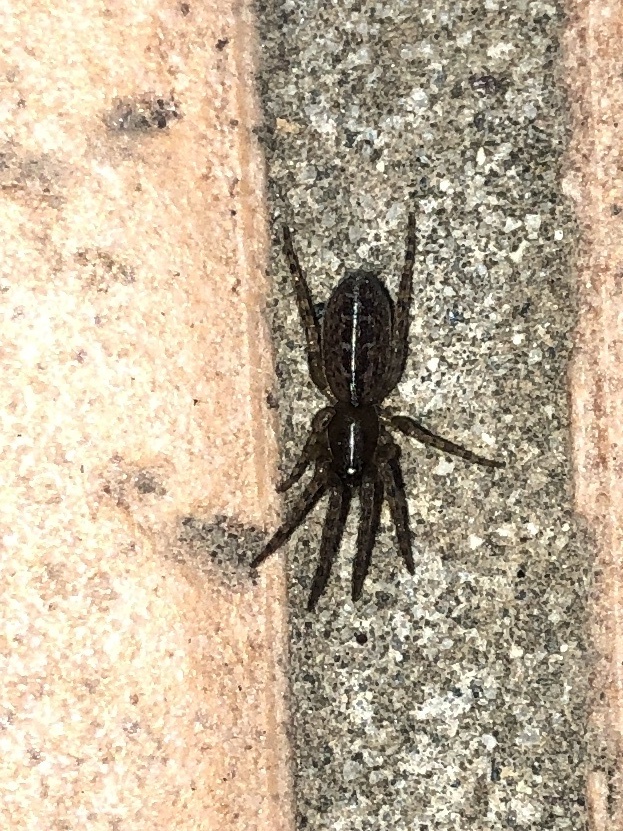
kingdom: Animalia
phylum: Arthropoda
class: Arachnida
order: Araneae
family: Segestriidae
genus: Segestria
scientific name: Segestria bavarica
